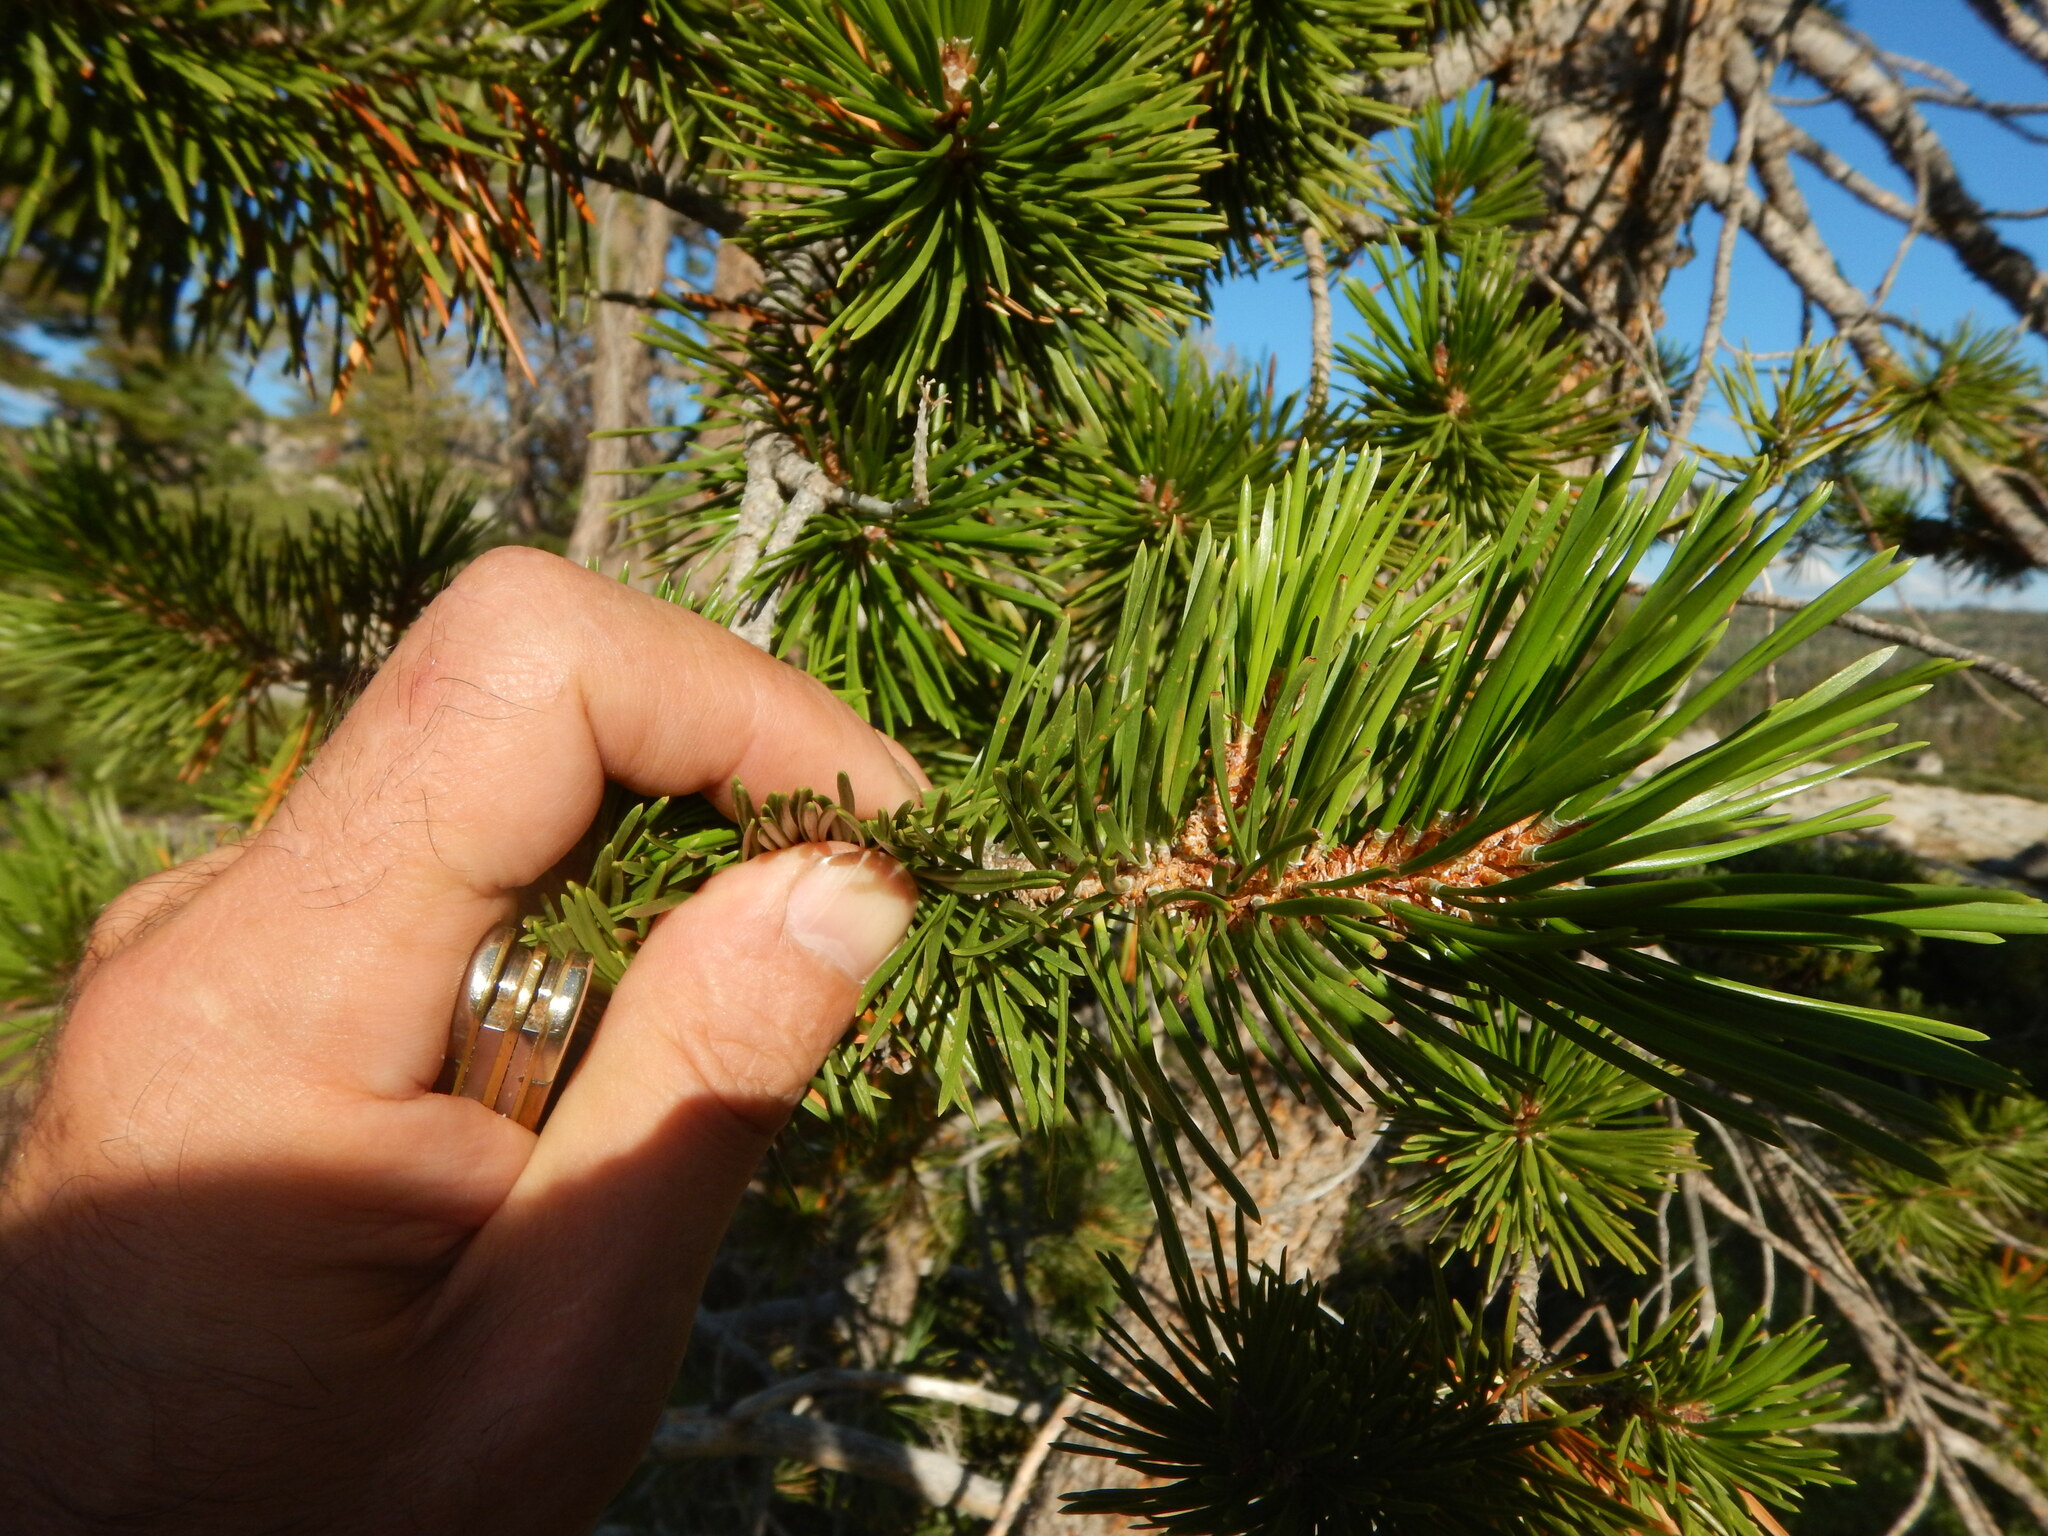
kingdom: Plantae
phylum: Tracheophyta
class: Pinopsida
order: Pinales
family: Pinaceae
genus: Pinus
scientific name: Pinus contorta
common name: Lodgepole pine
